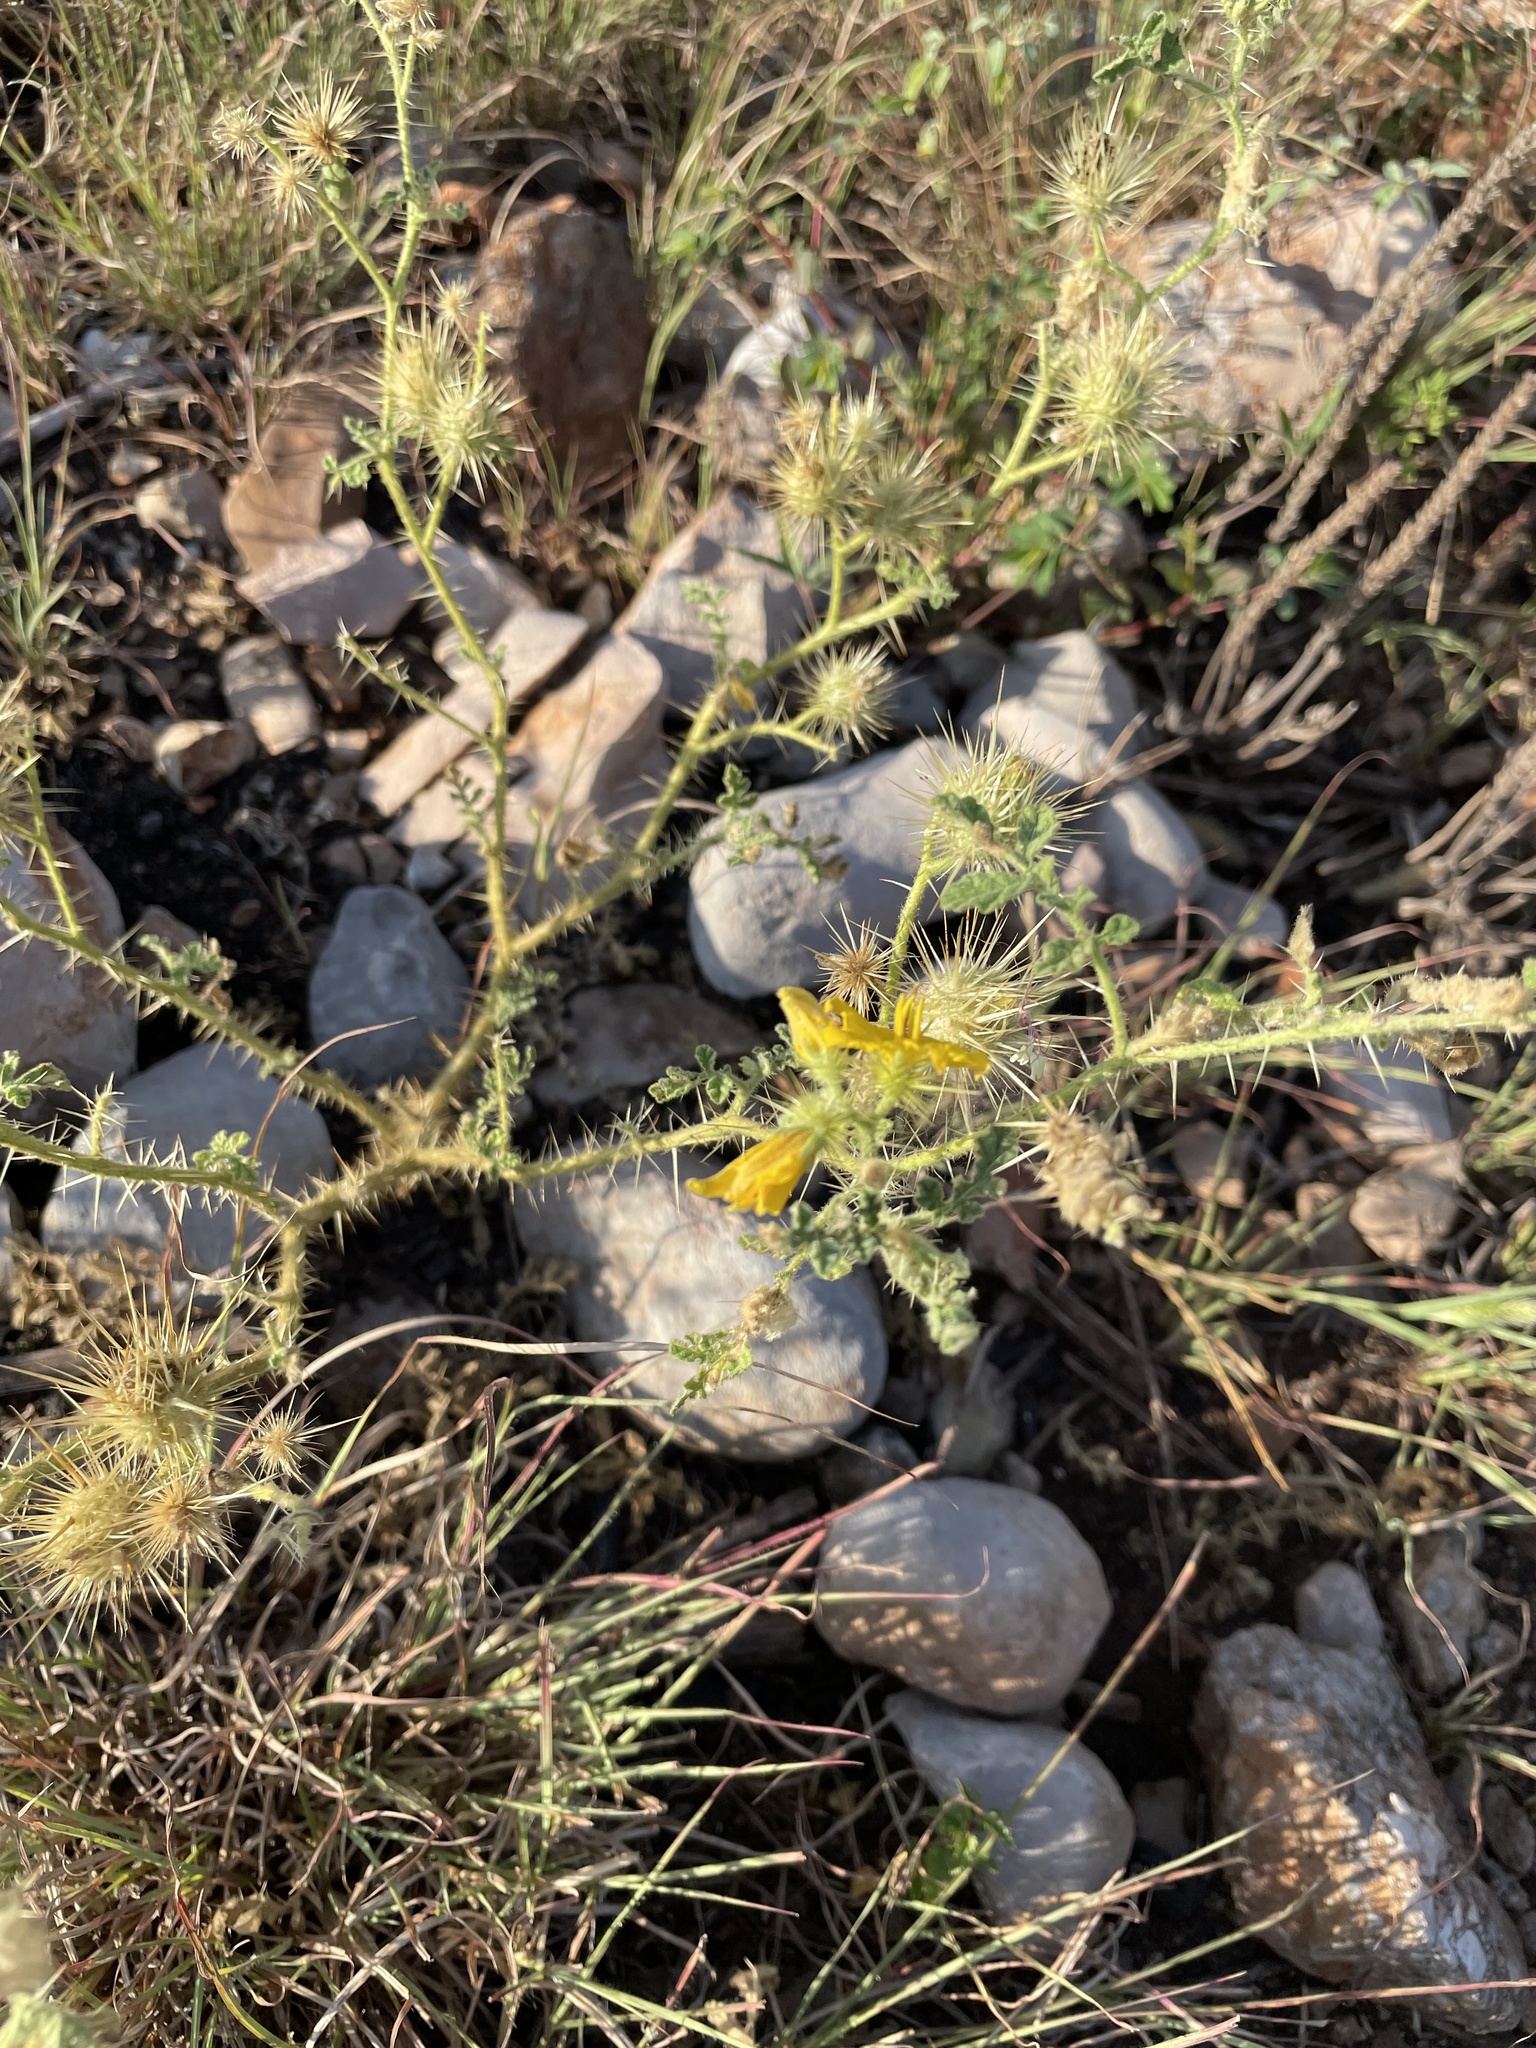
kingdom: Plantae
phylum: Tracheophyta
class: Magnoliopsida
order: Solanales
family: Solanaceae
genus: Solanum
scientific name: Solanum angustifolium
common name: Buffalobur nightshade
